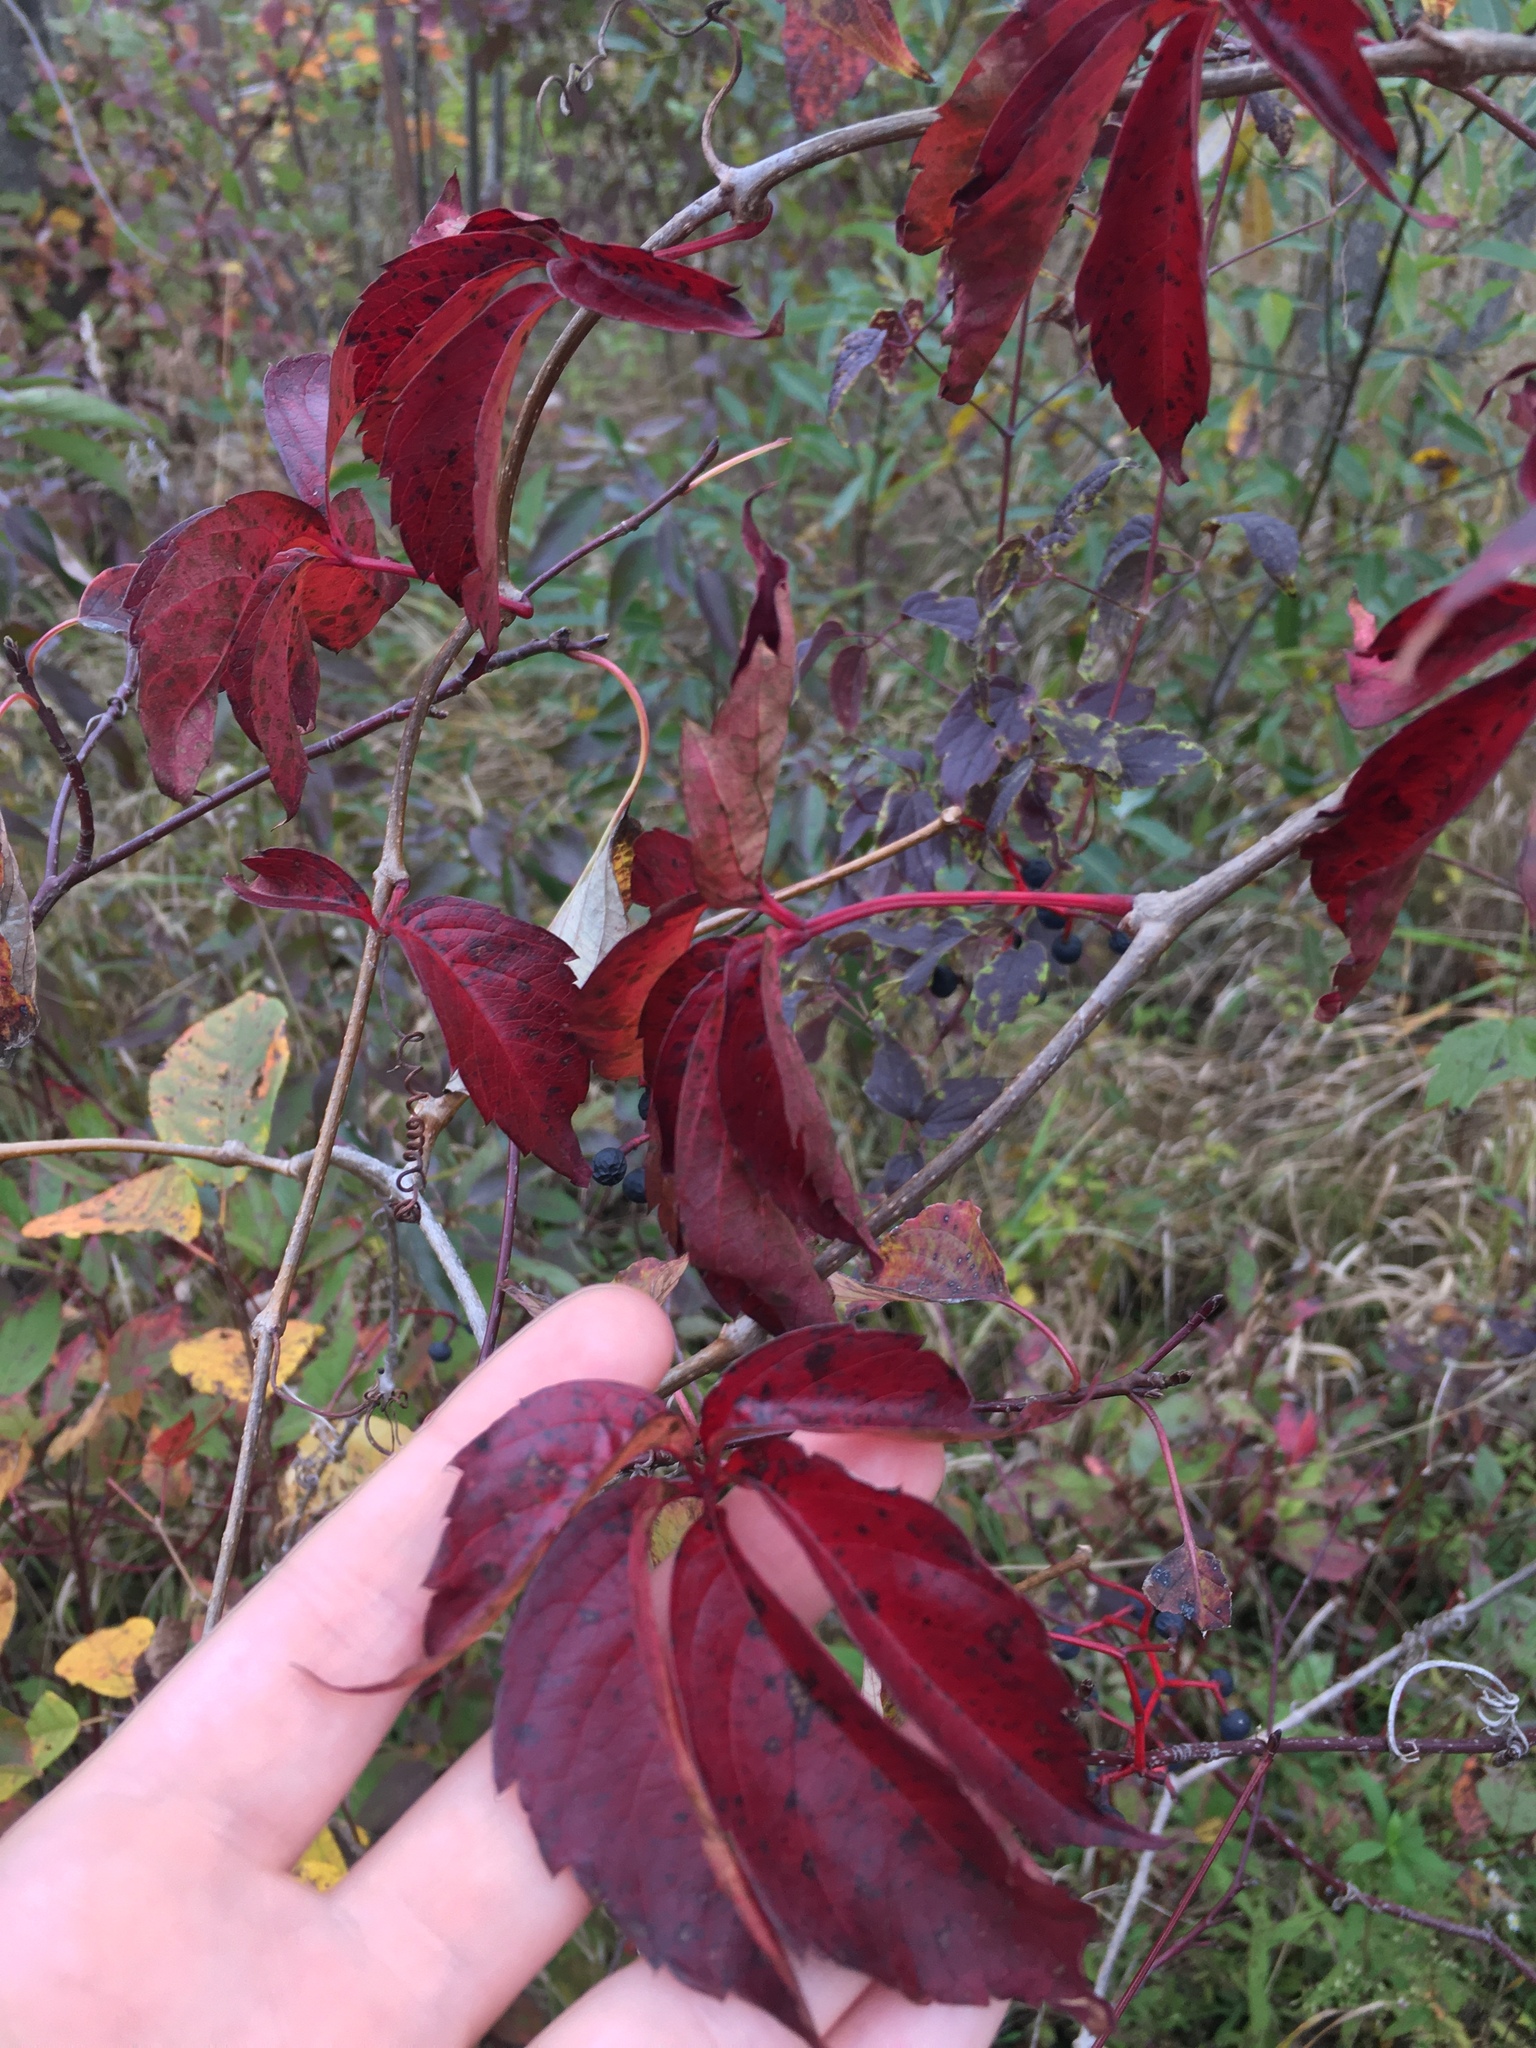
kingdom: Plantae
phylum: Tracheophyta
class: Magnoliopsida
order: Vitales
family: Vitaceae
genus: Parthenocissus
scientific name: Parthenocissus quinquefolia
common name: Virginia-creeper
